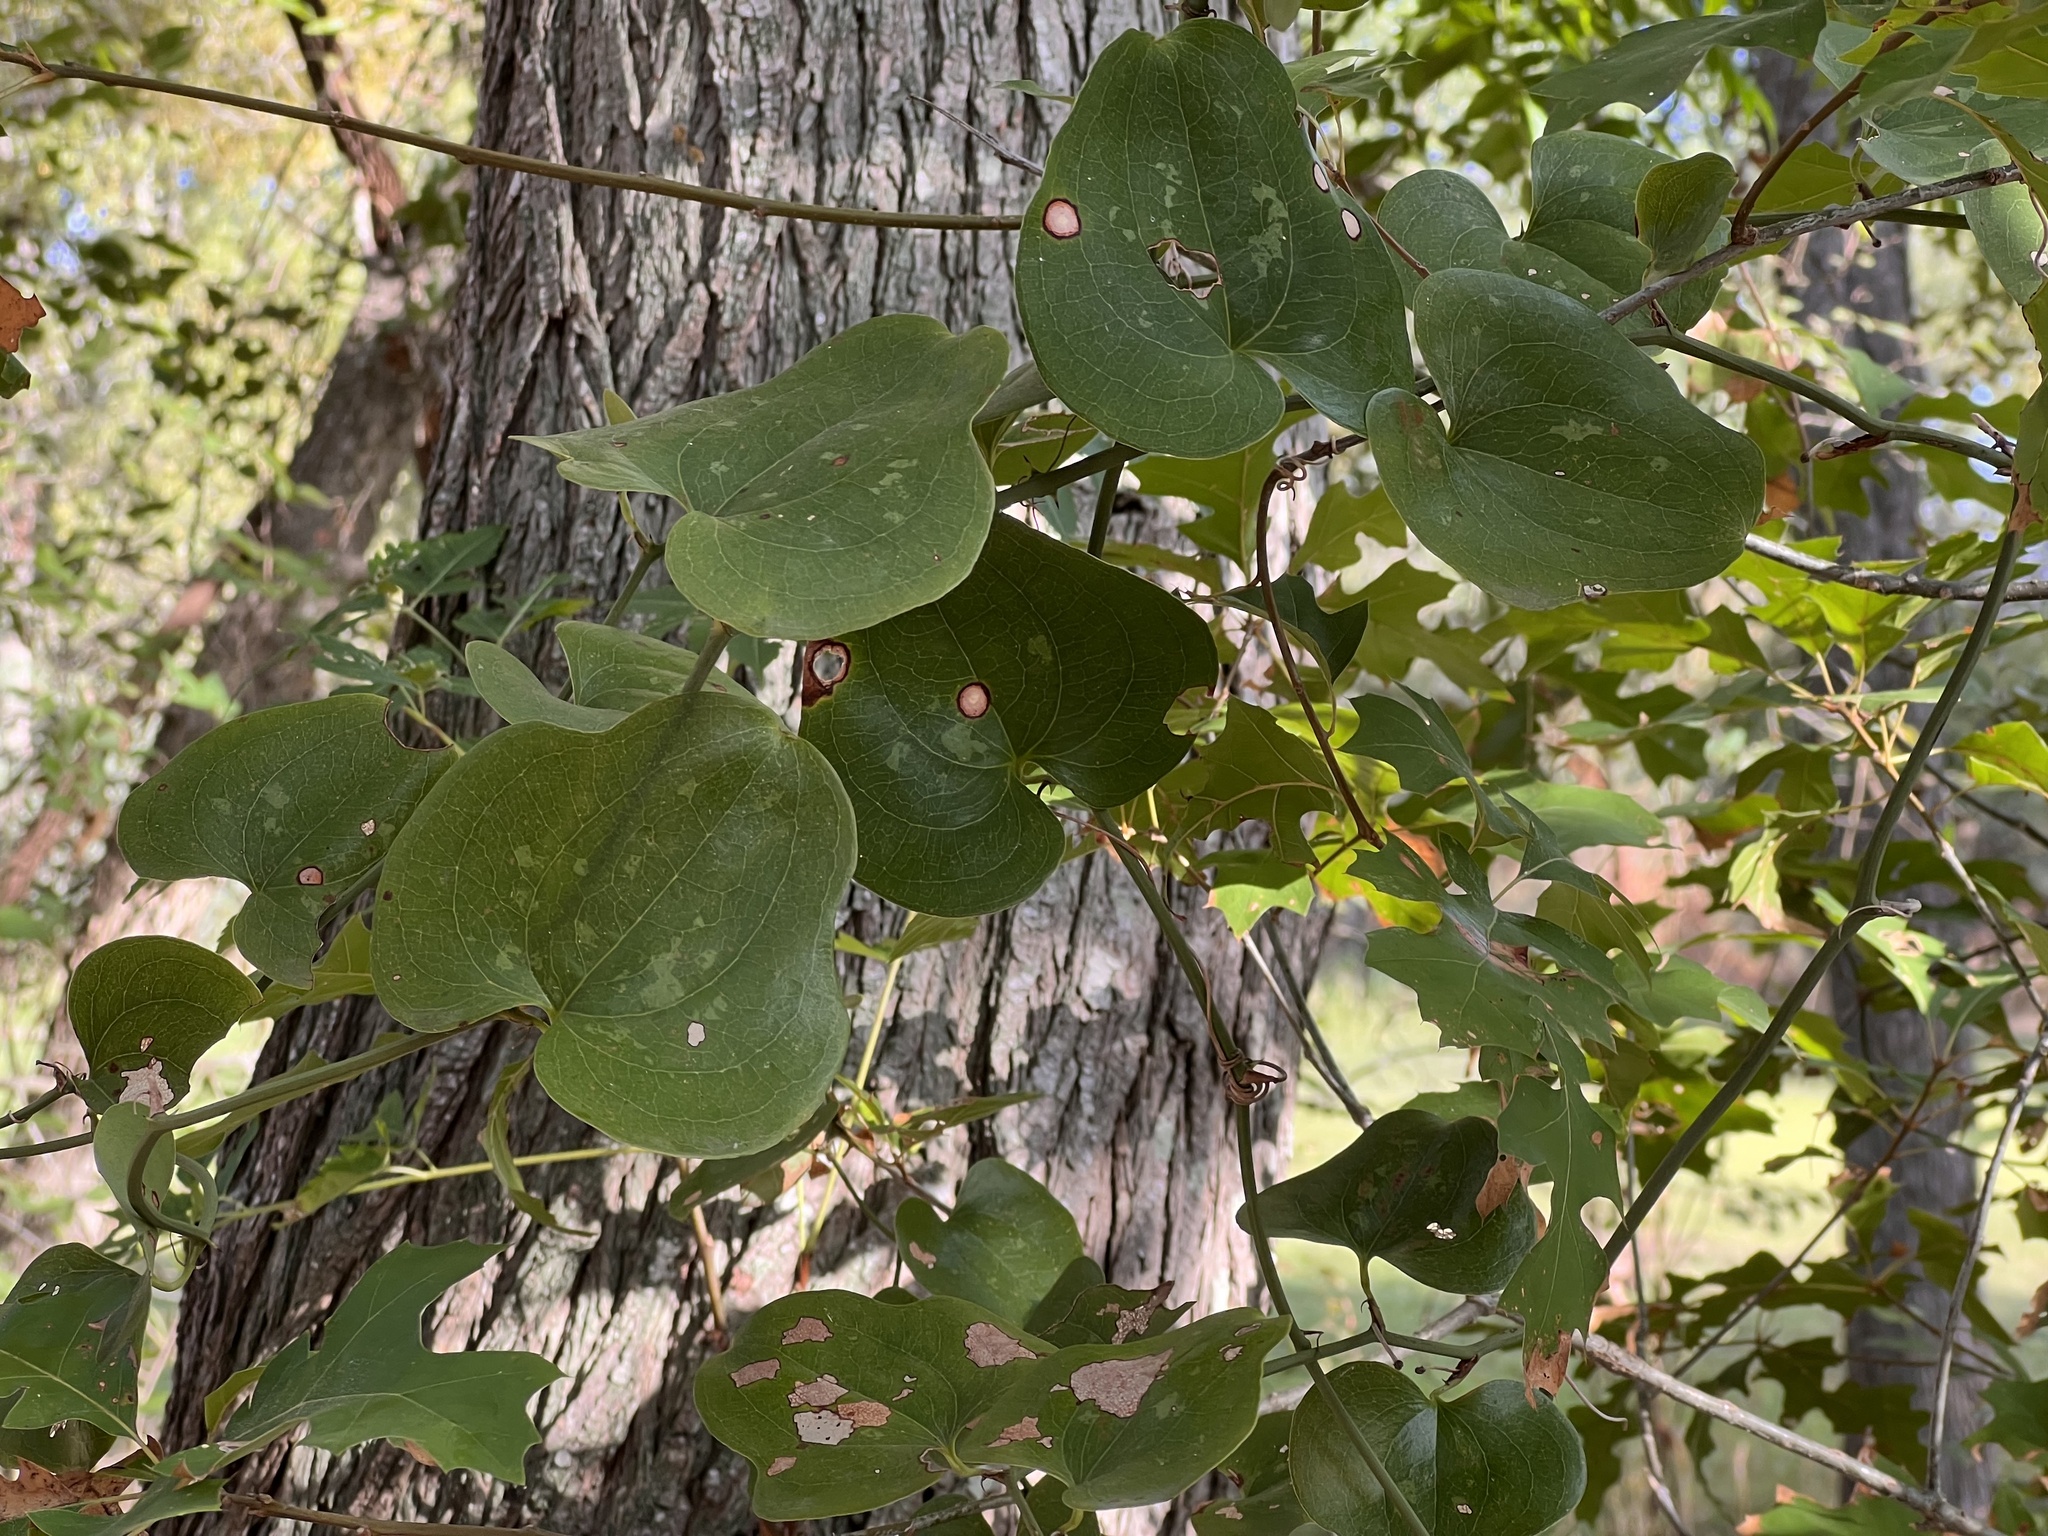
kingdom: Plantae
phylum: Tracheophyta
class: Liliopsida
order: Liliales
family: Smilacaceae
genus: Smilax
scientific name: Smilax bona-nox
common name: Catbrier
